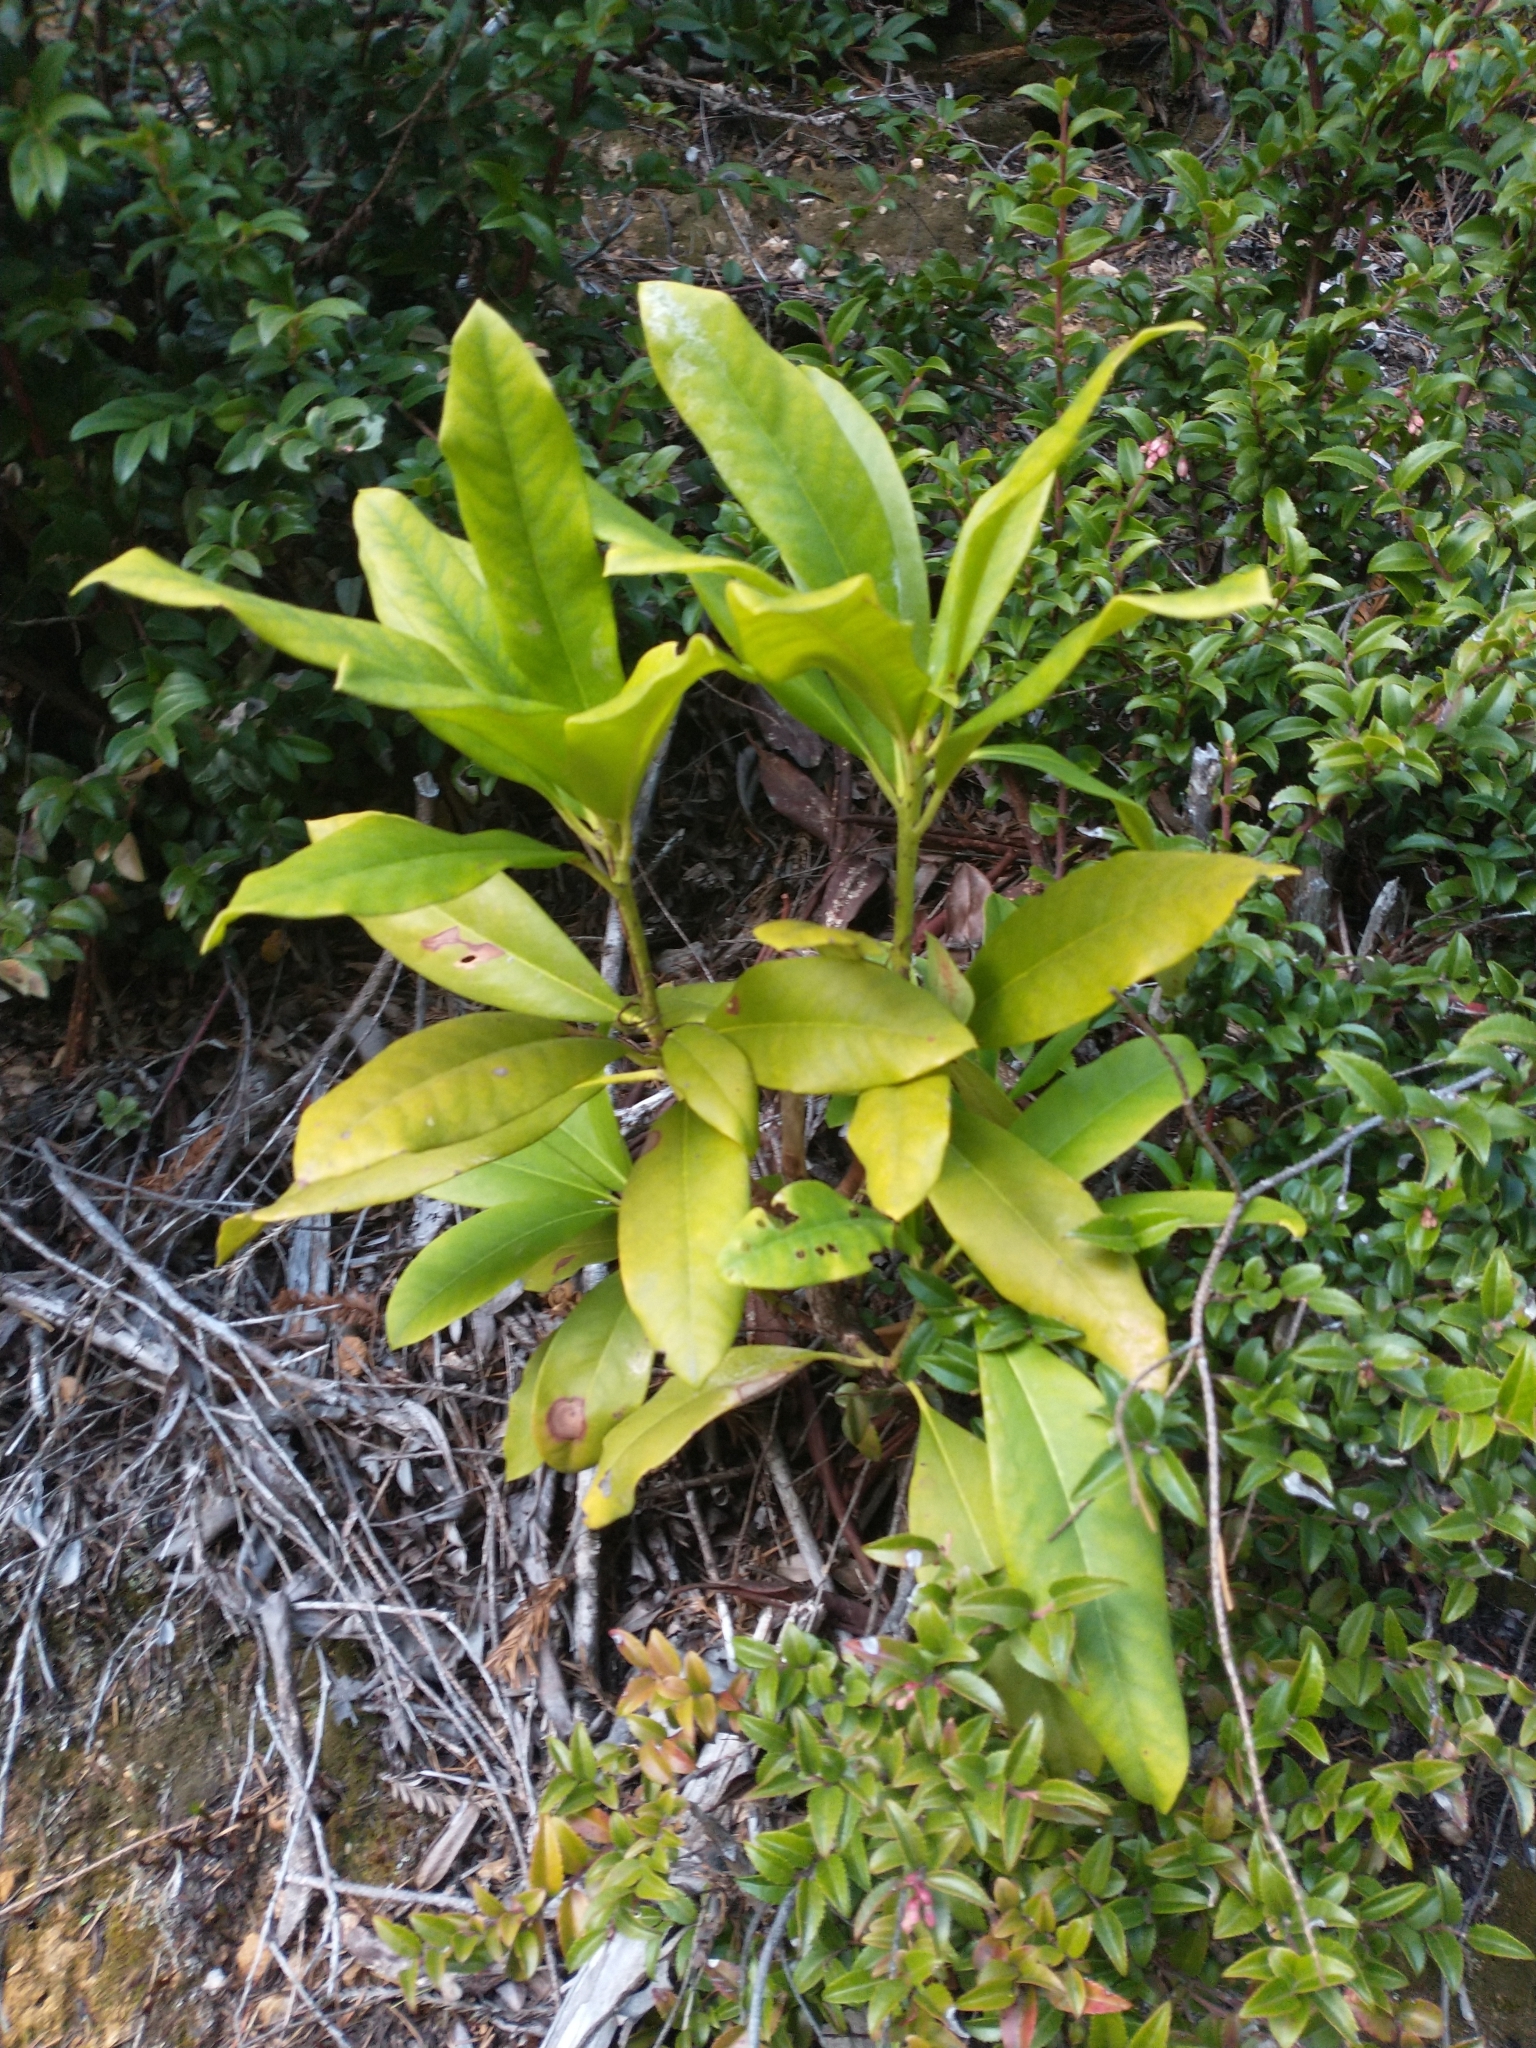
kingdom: Plantae
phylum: Tracheophyta
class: Magnoliopsida
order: Ericales
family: Ericaceae
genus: Rhododendron
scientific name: Rhododendron macrophyllum
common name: California rose bay
